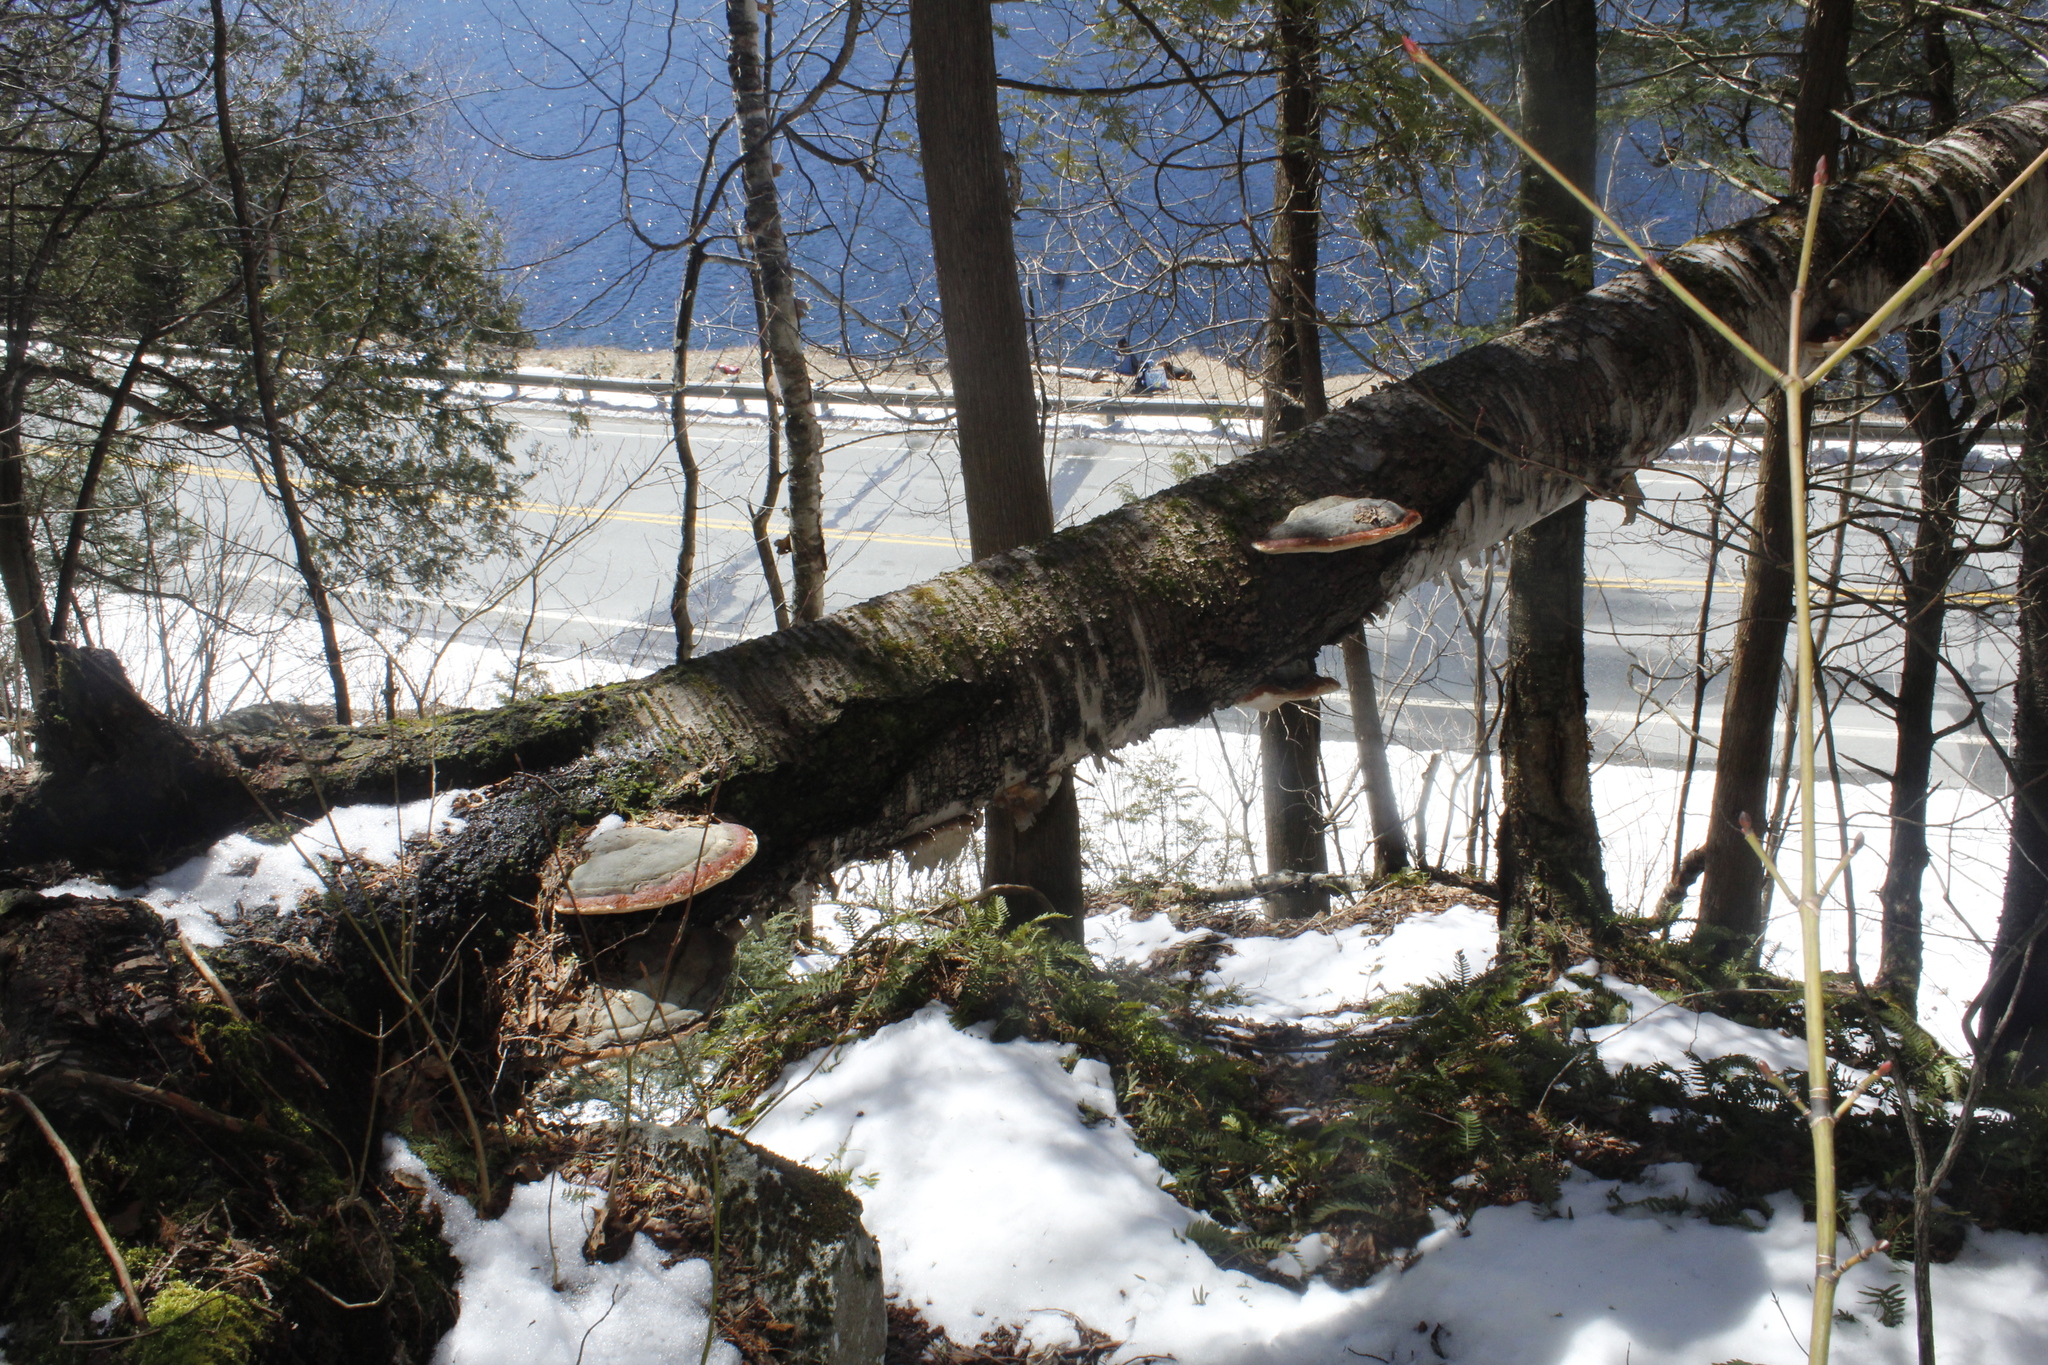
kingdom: Fungi
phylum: Basidiomycota
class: Agaricomycetes
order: Polyporales
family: Fomitopsidaceae
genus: Fomitopsis
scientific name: Fomitopsis mounceae
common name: Northern red belt
